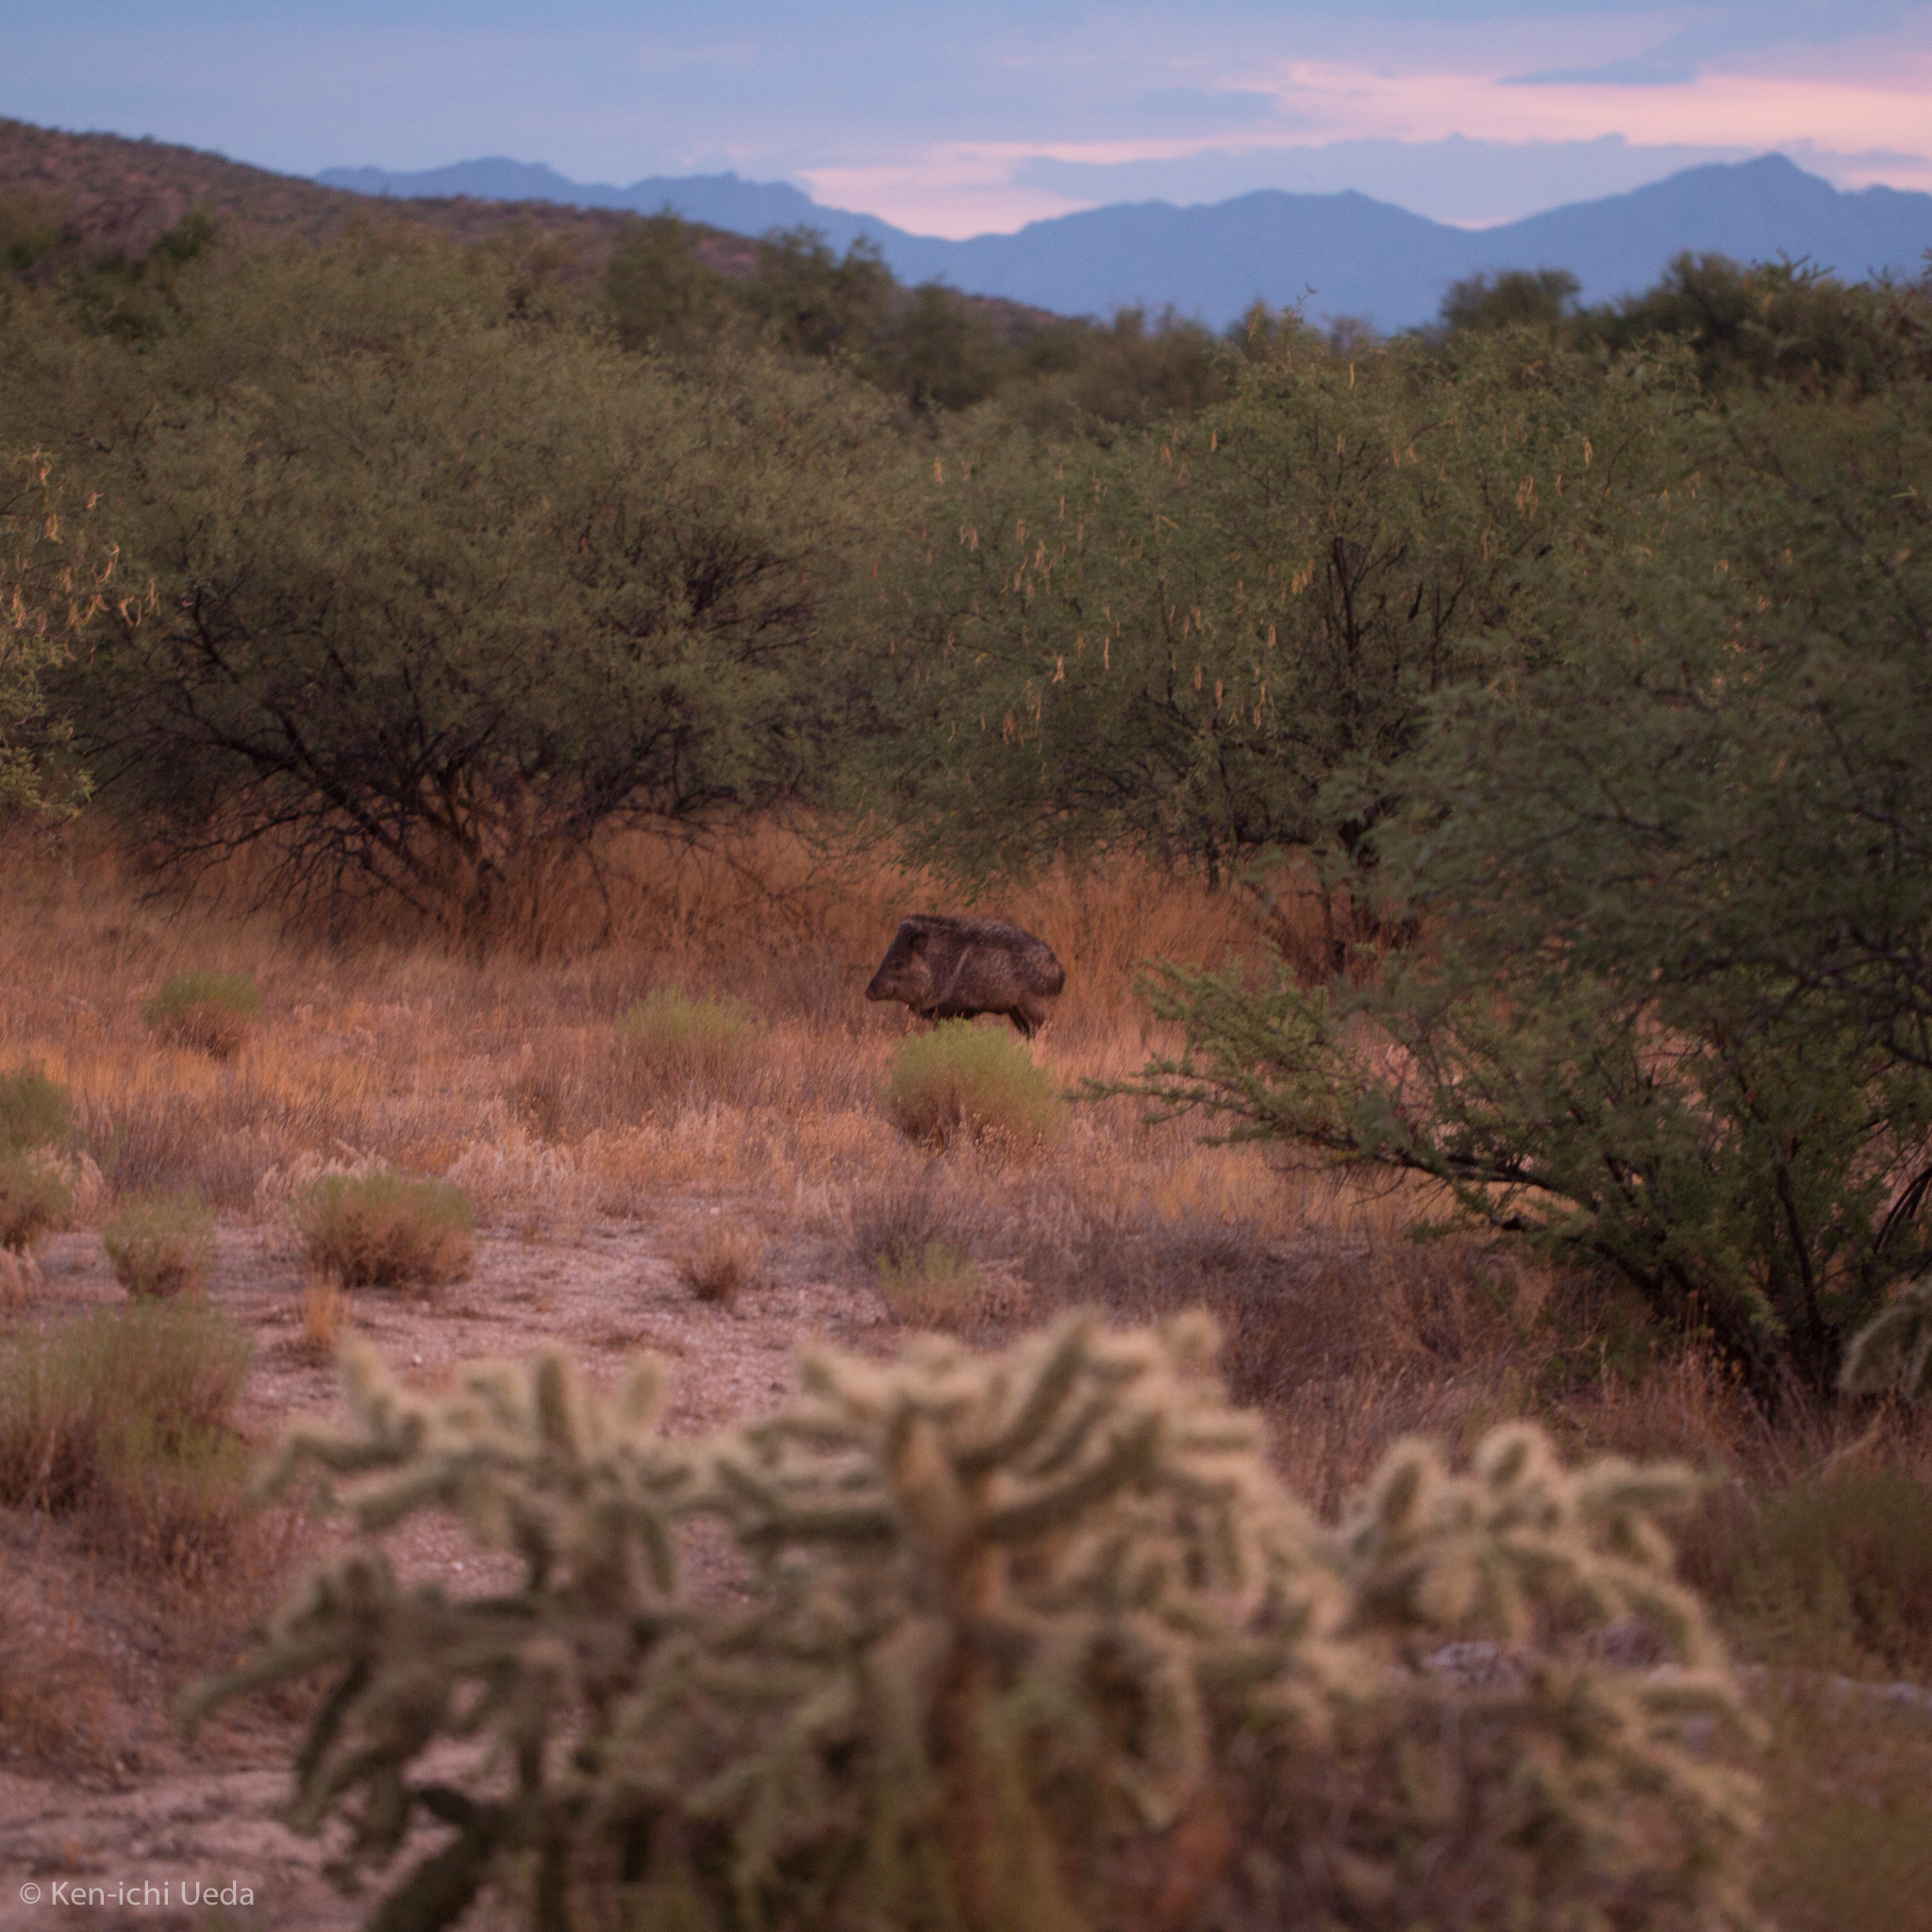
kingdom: Animalia
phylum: Chordata
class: Mammalia
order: Artiodactyla
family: Tayassuidae
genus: Pecari
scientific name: Pecari tajacu
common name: Collared peccary
